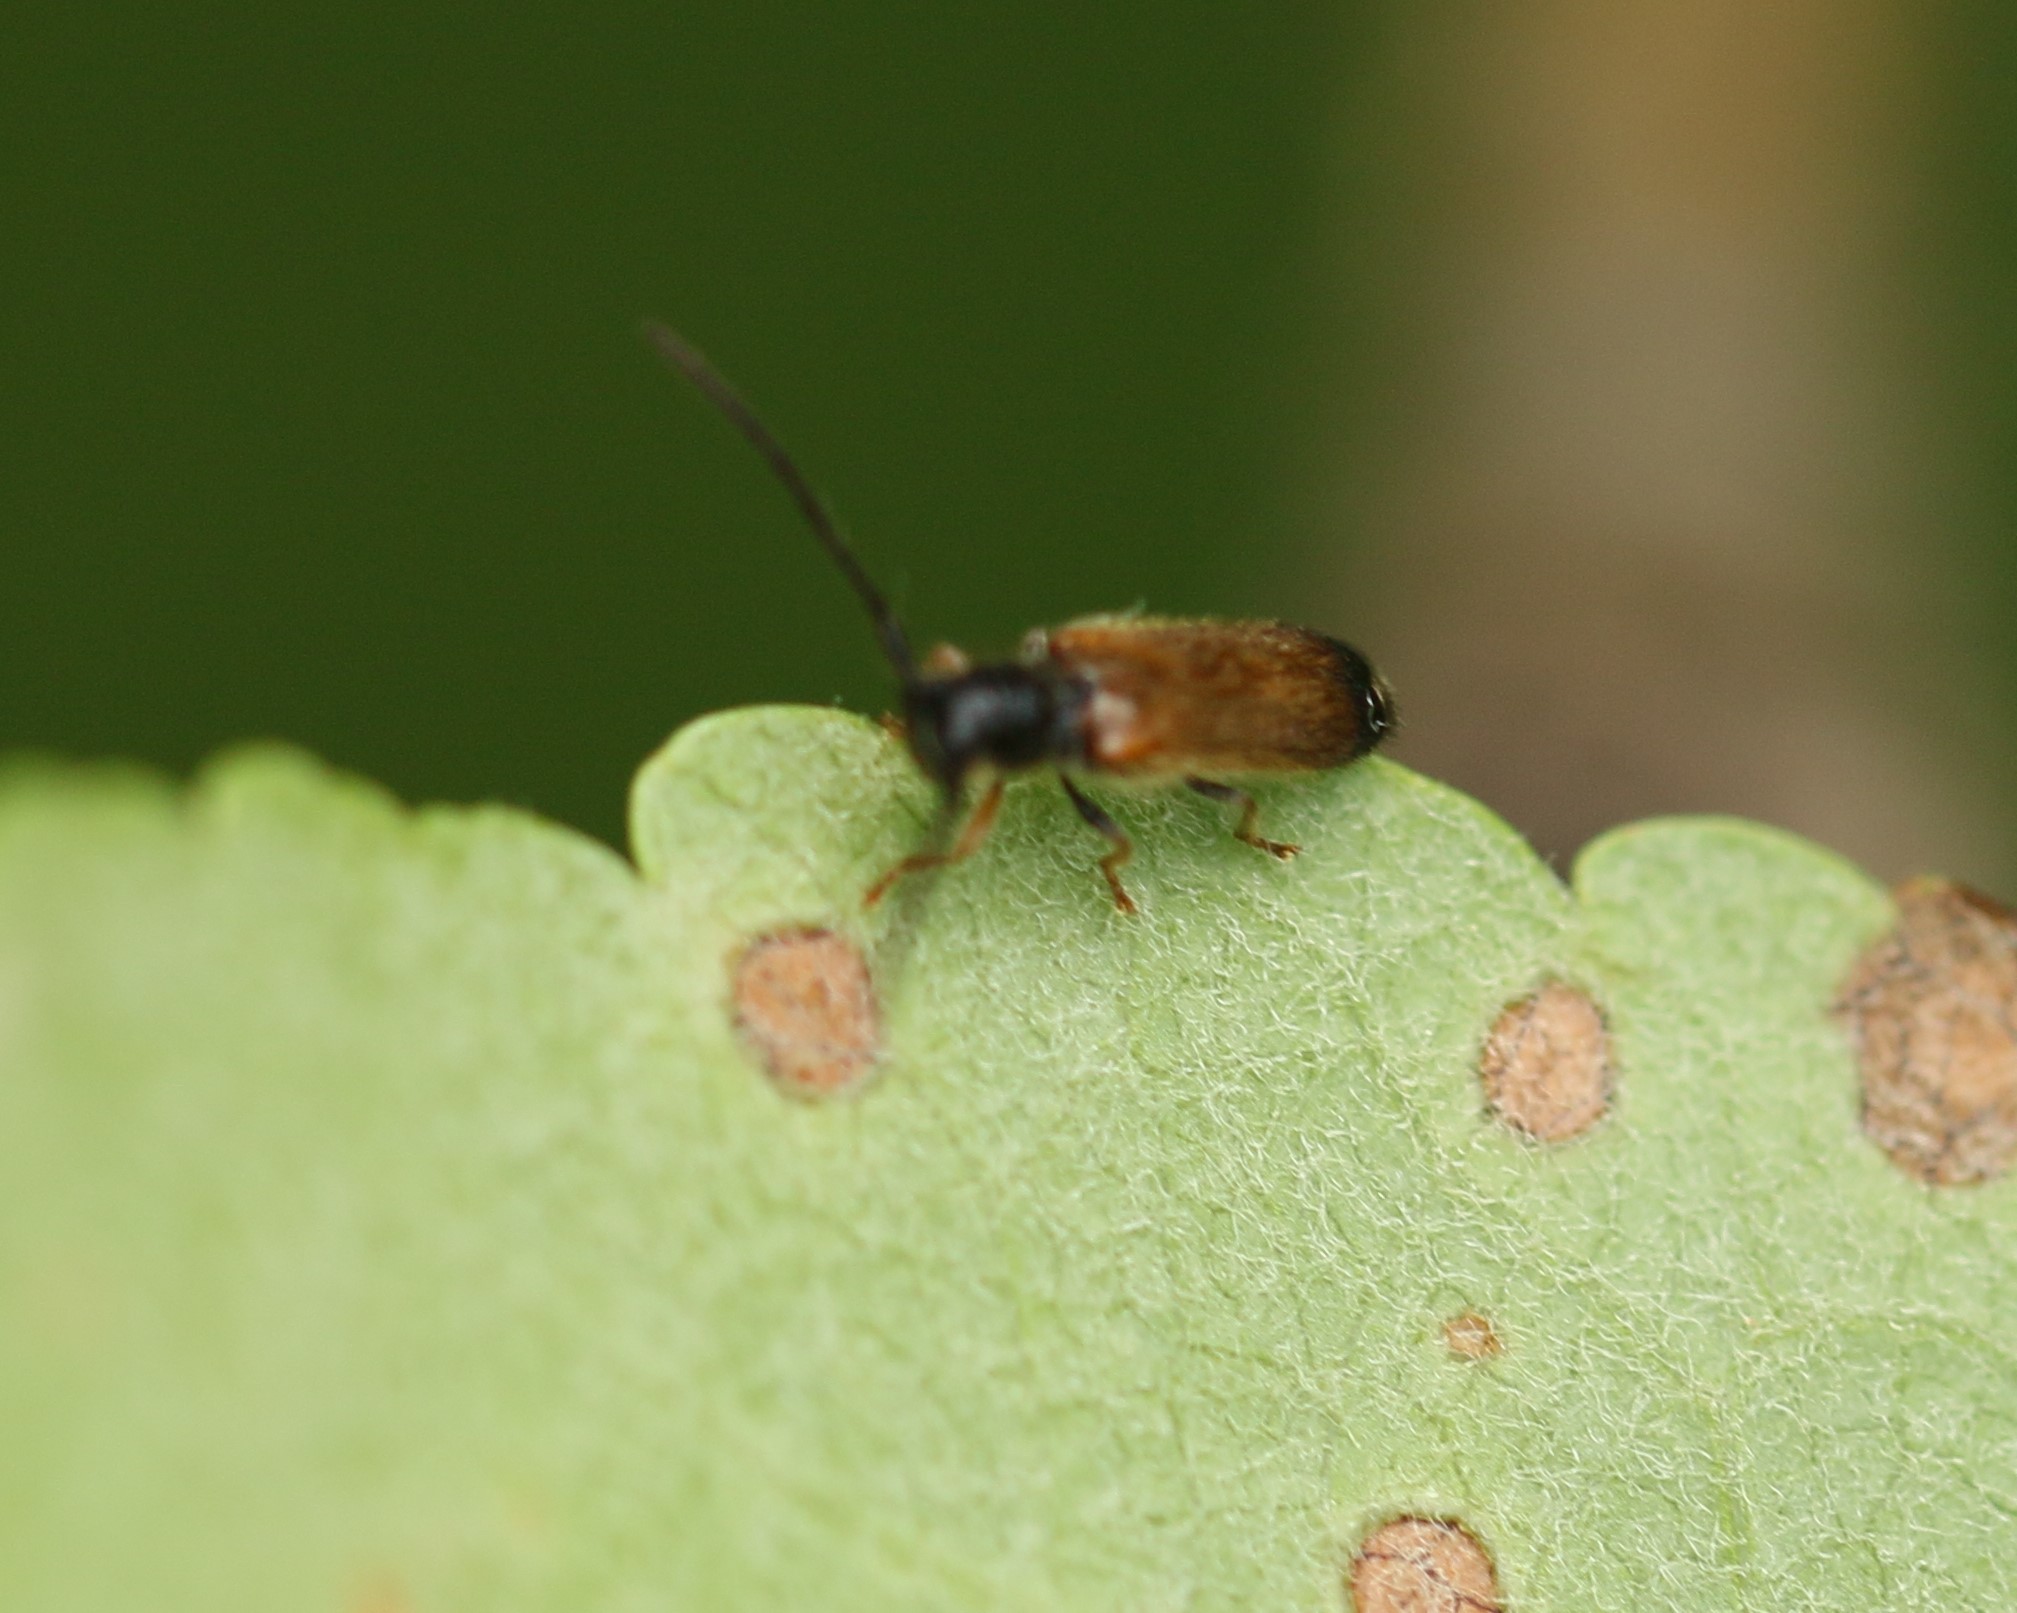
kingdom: Animalia
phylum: Arthropoda
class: Insecta
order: Coleoptera
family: Cerambycidae
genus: Tetrops
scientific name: Tetrops praeustus
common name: Plum beetle
